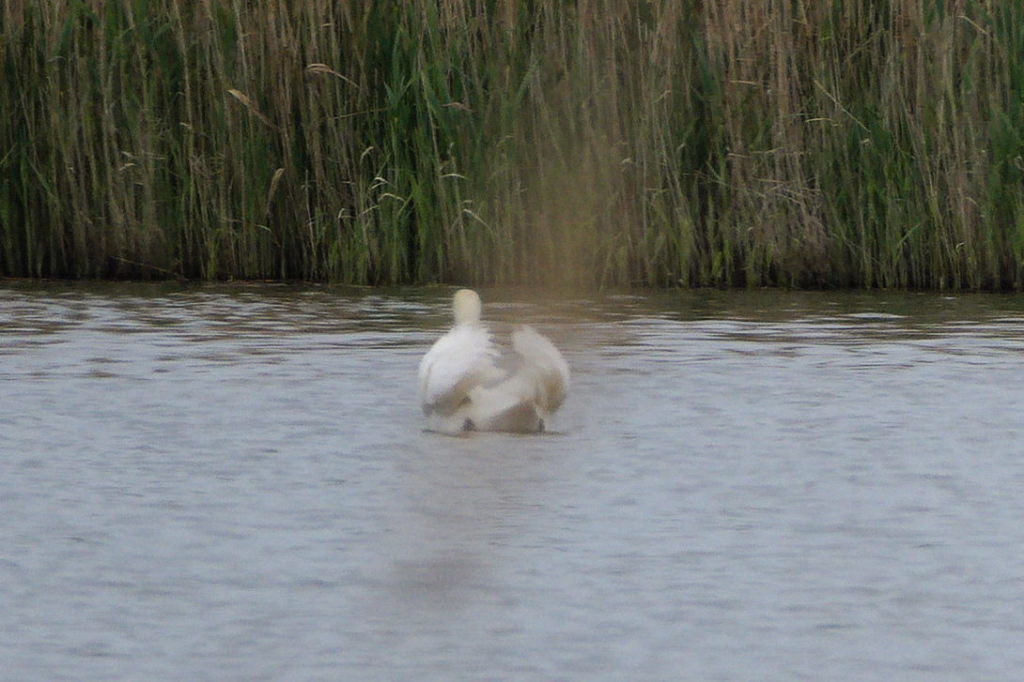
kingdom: Animalia
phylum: Chordata
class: Aves
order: Anseriformes
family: Anatidae
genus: Cygnus
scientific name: Cygnus olor
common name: Mute swan
